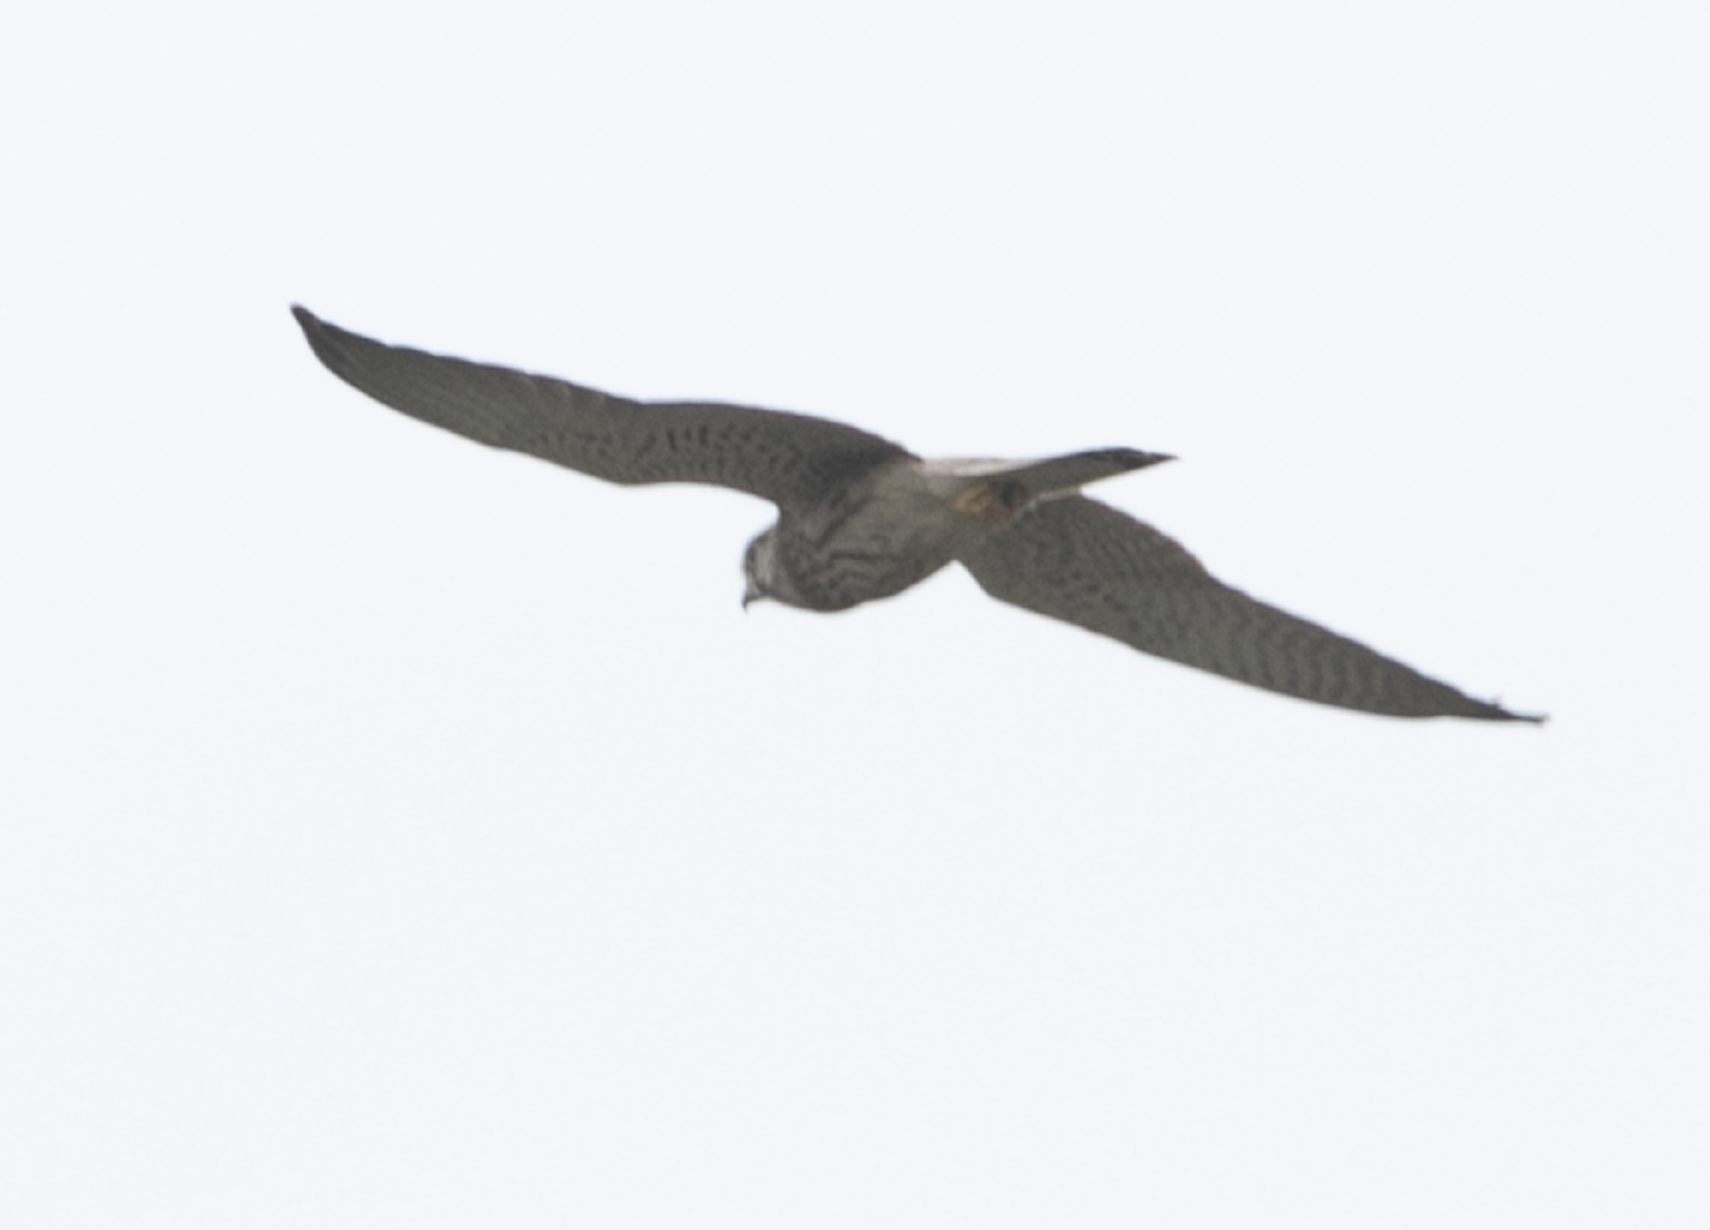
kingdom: Animalia
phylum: Chordata
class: Aves
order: Falconiformes
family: Falconidae
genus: Falco
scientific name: Falco tinnunculus
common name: Common kestrel
